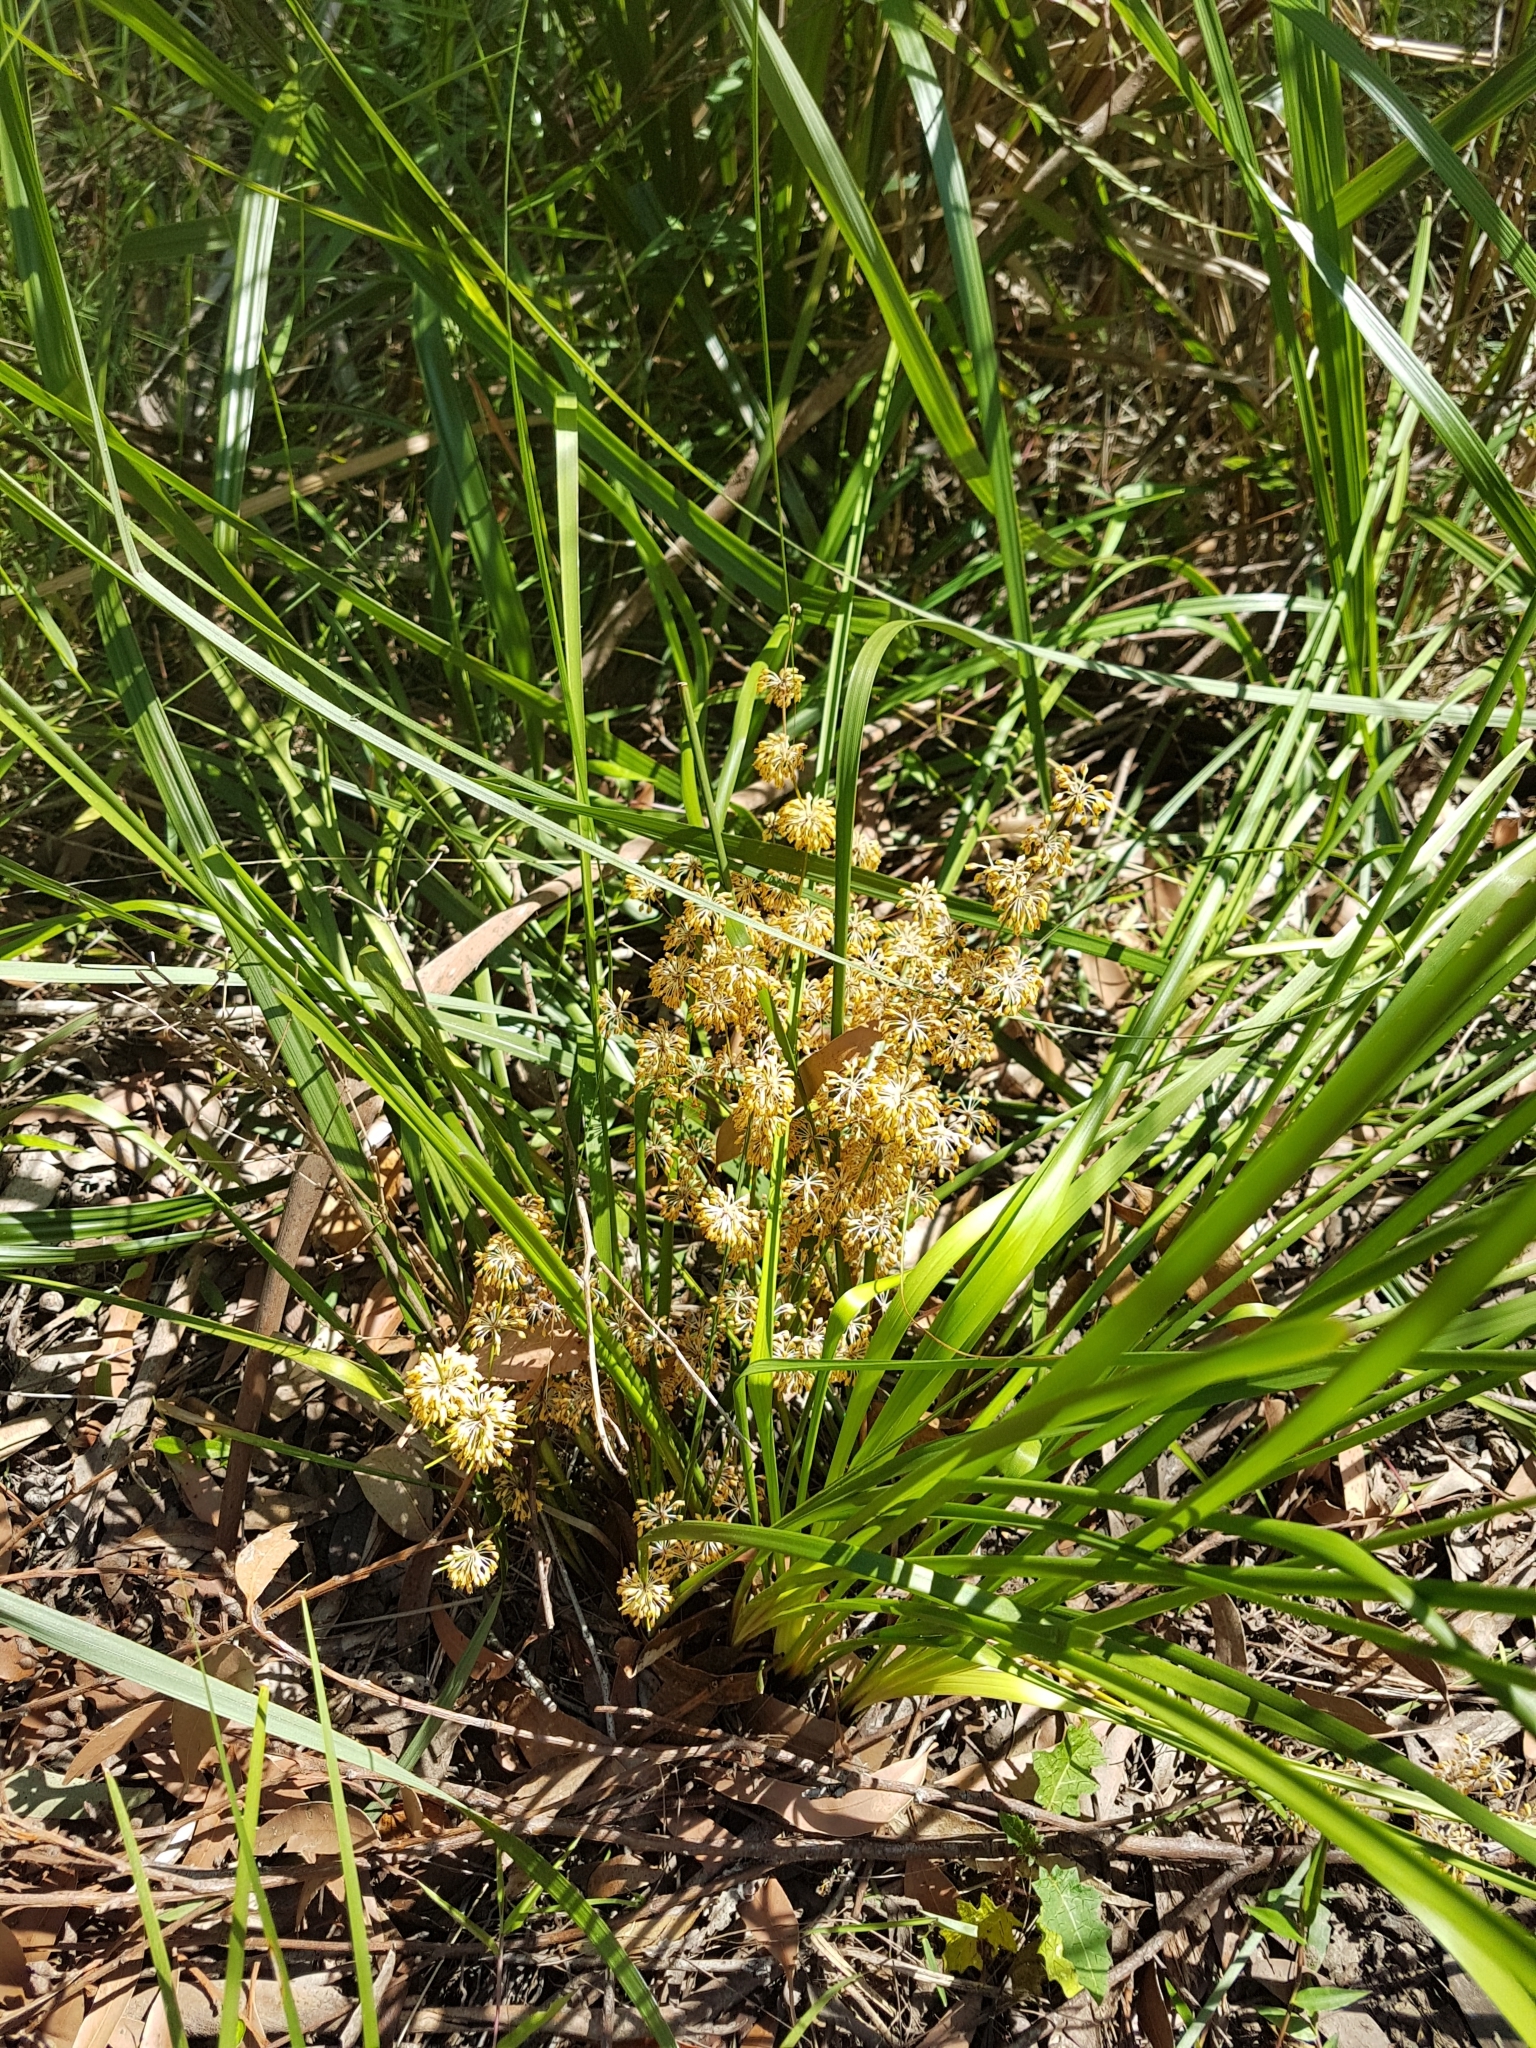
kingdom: Plantae
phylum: Tracheophyta
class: Liliopsida
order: Asparagales
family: Asparagaceae
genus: Lomandra
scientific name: Lomandra multiflora
